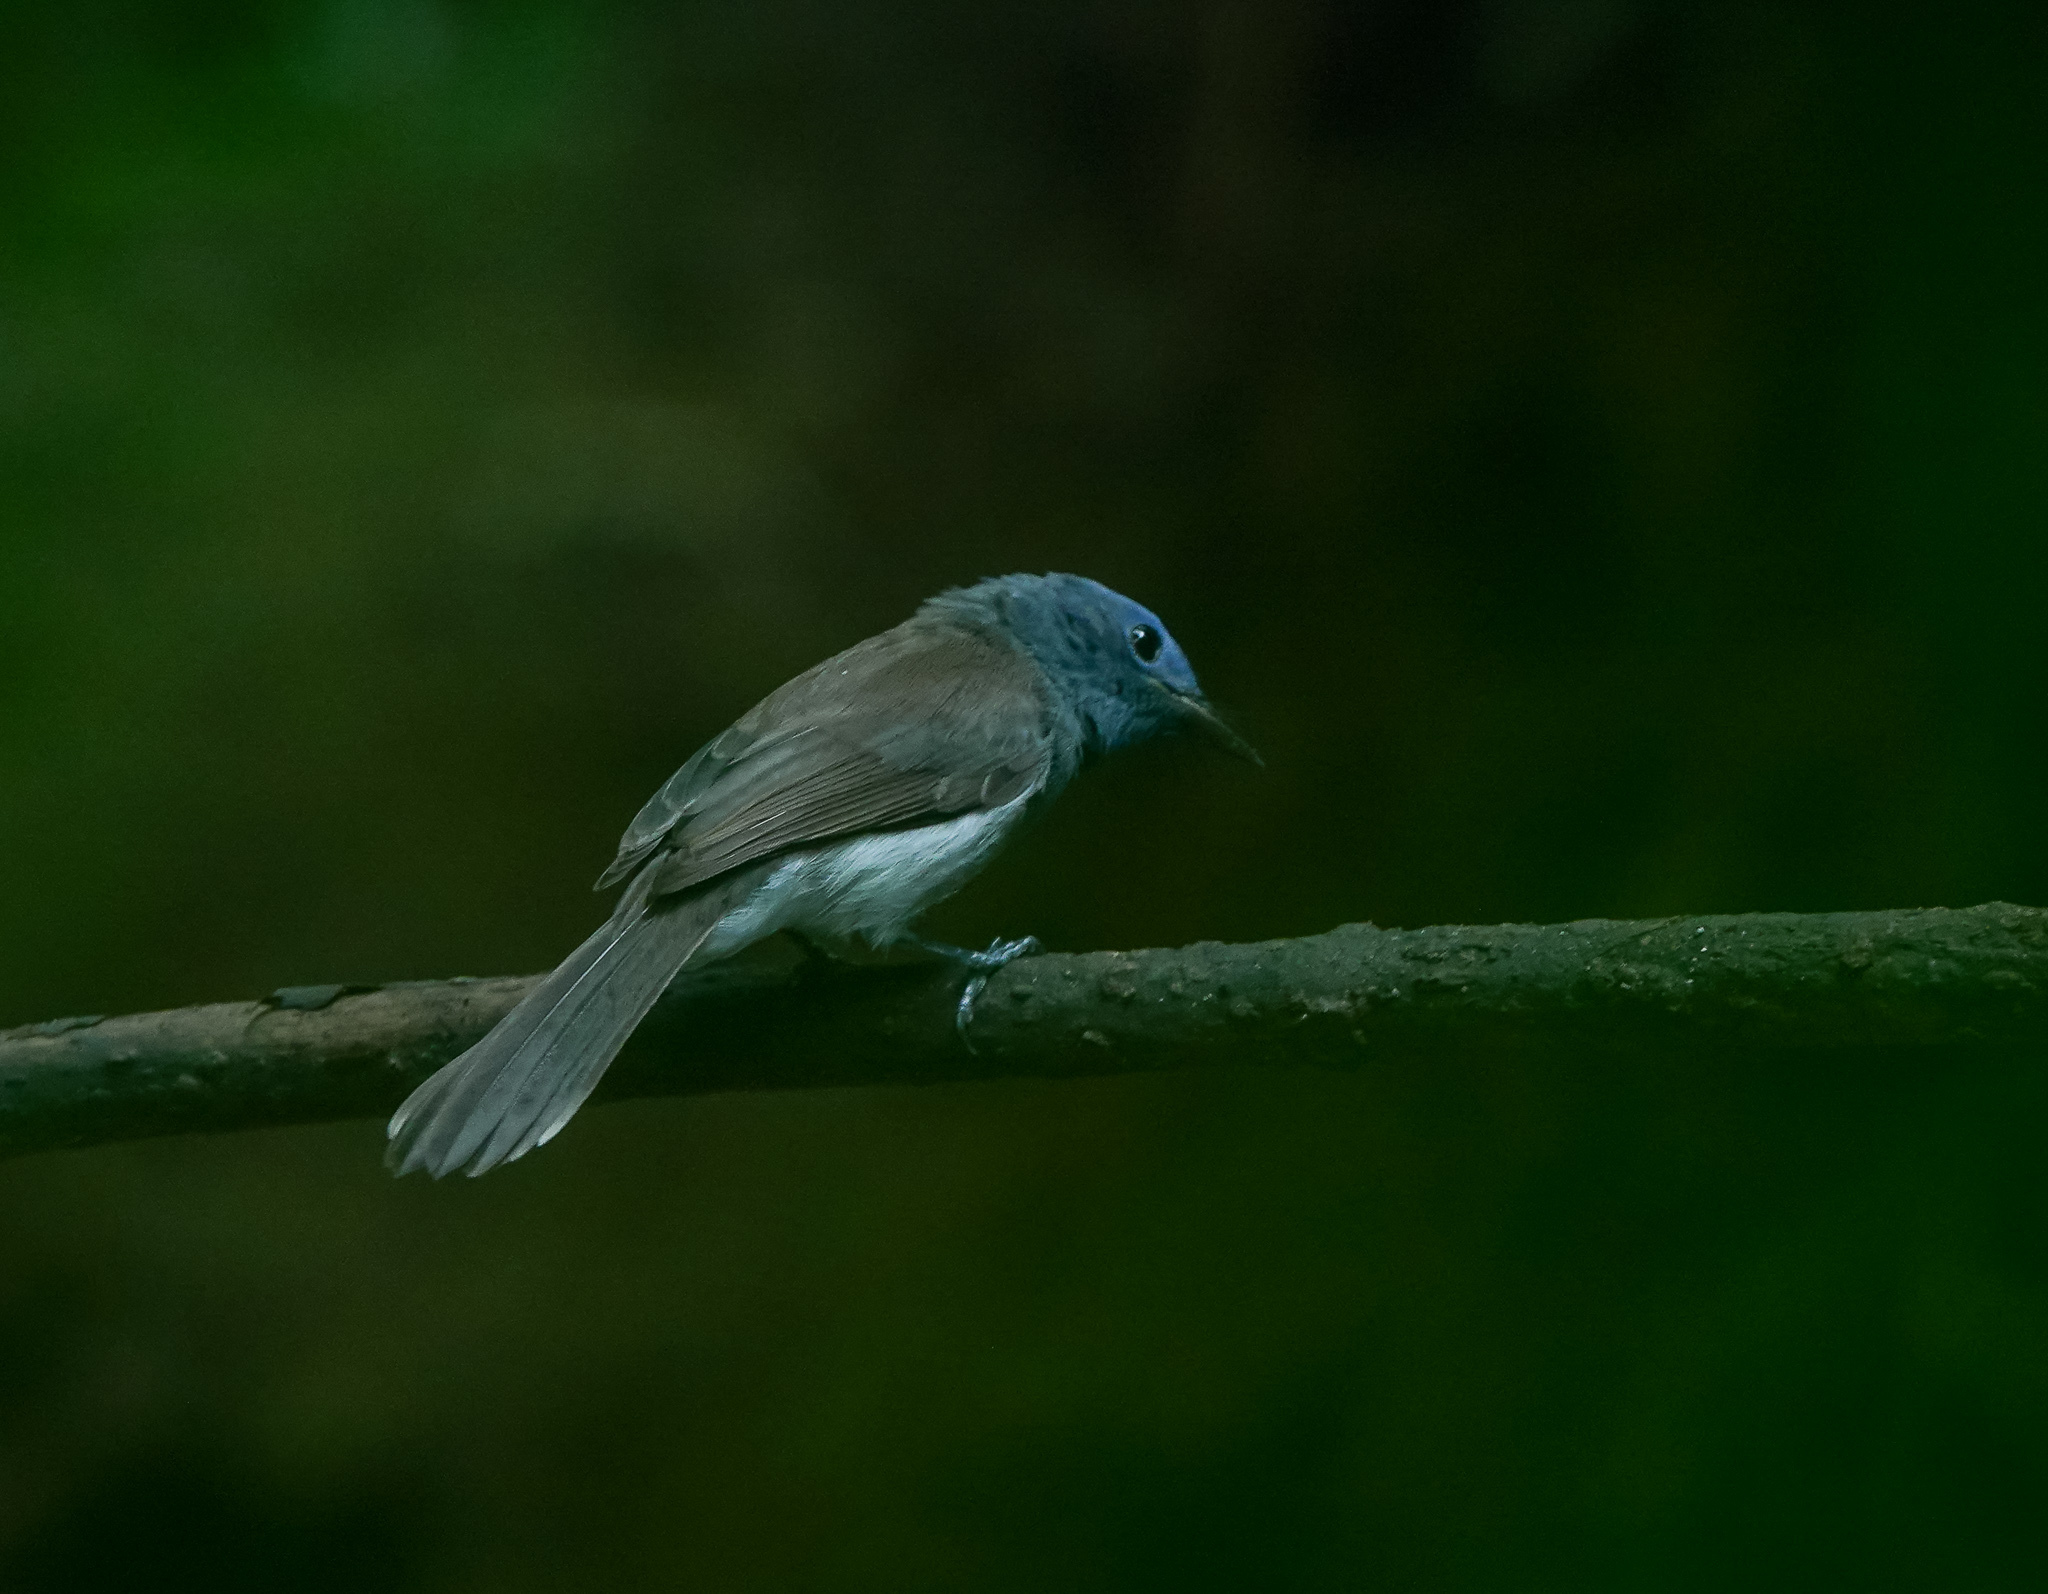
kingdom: Animalia
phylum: Chordata
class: Aves
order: Passeriformes
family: Monarchidae
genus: Hypothymis
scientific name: Hypothymis azurea
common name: Black-naped monarch
